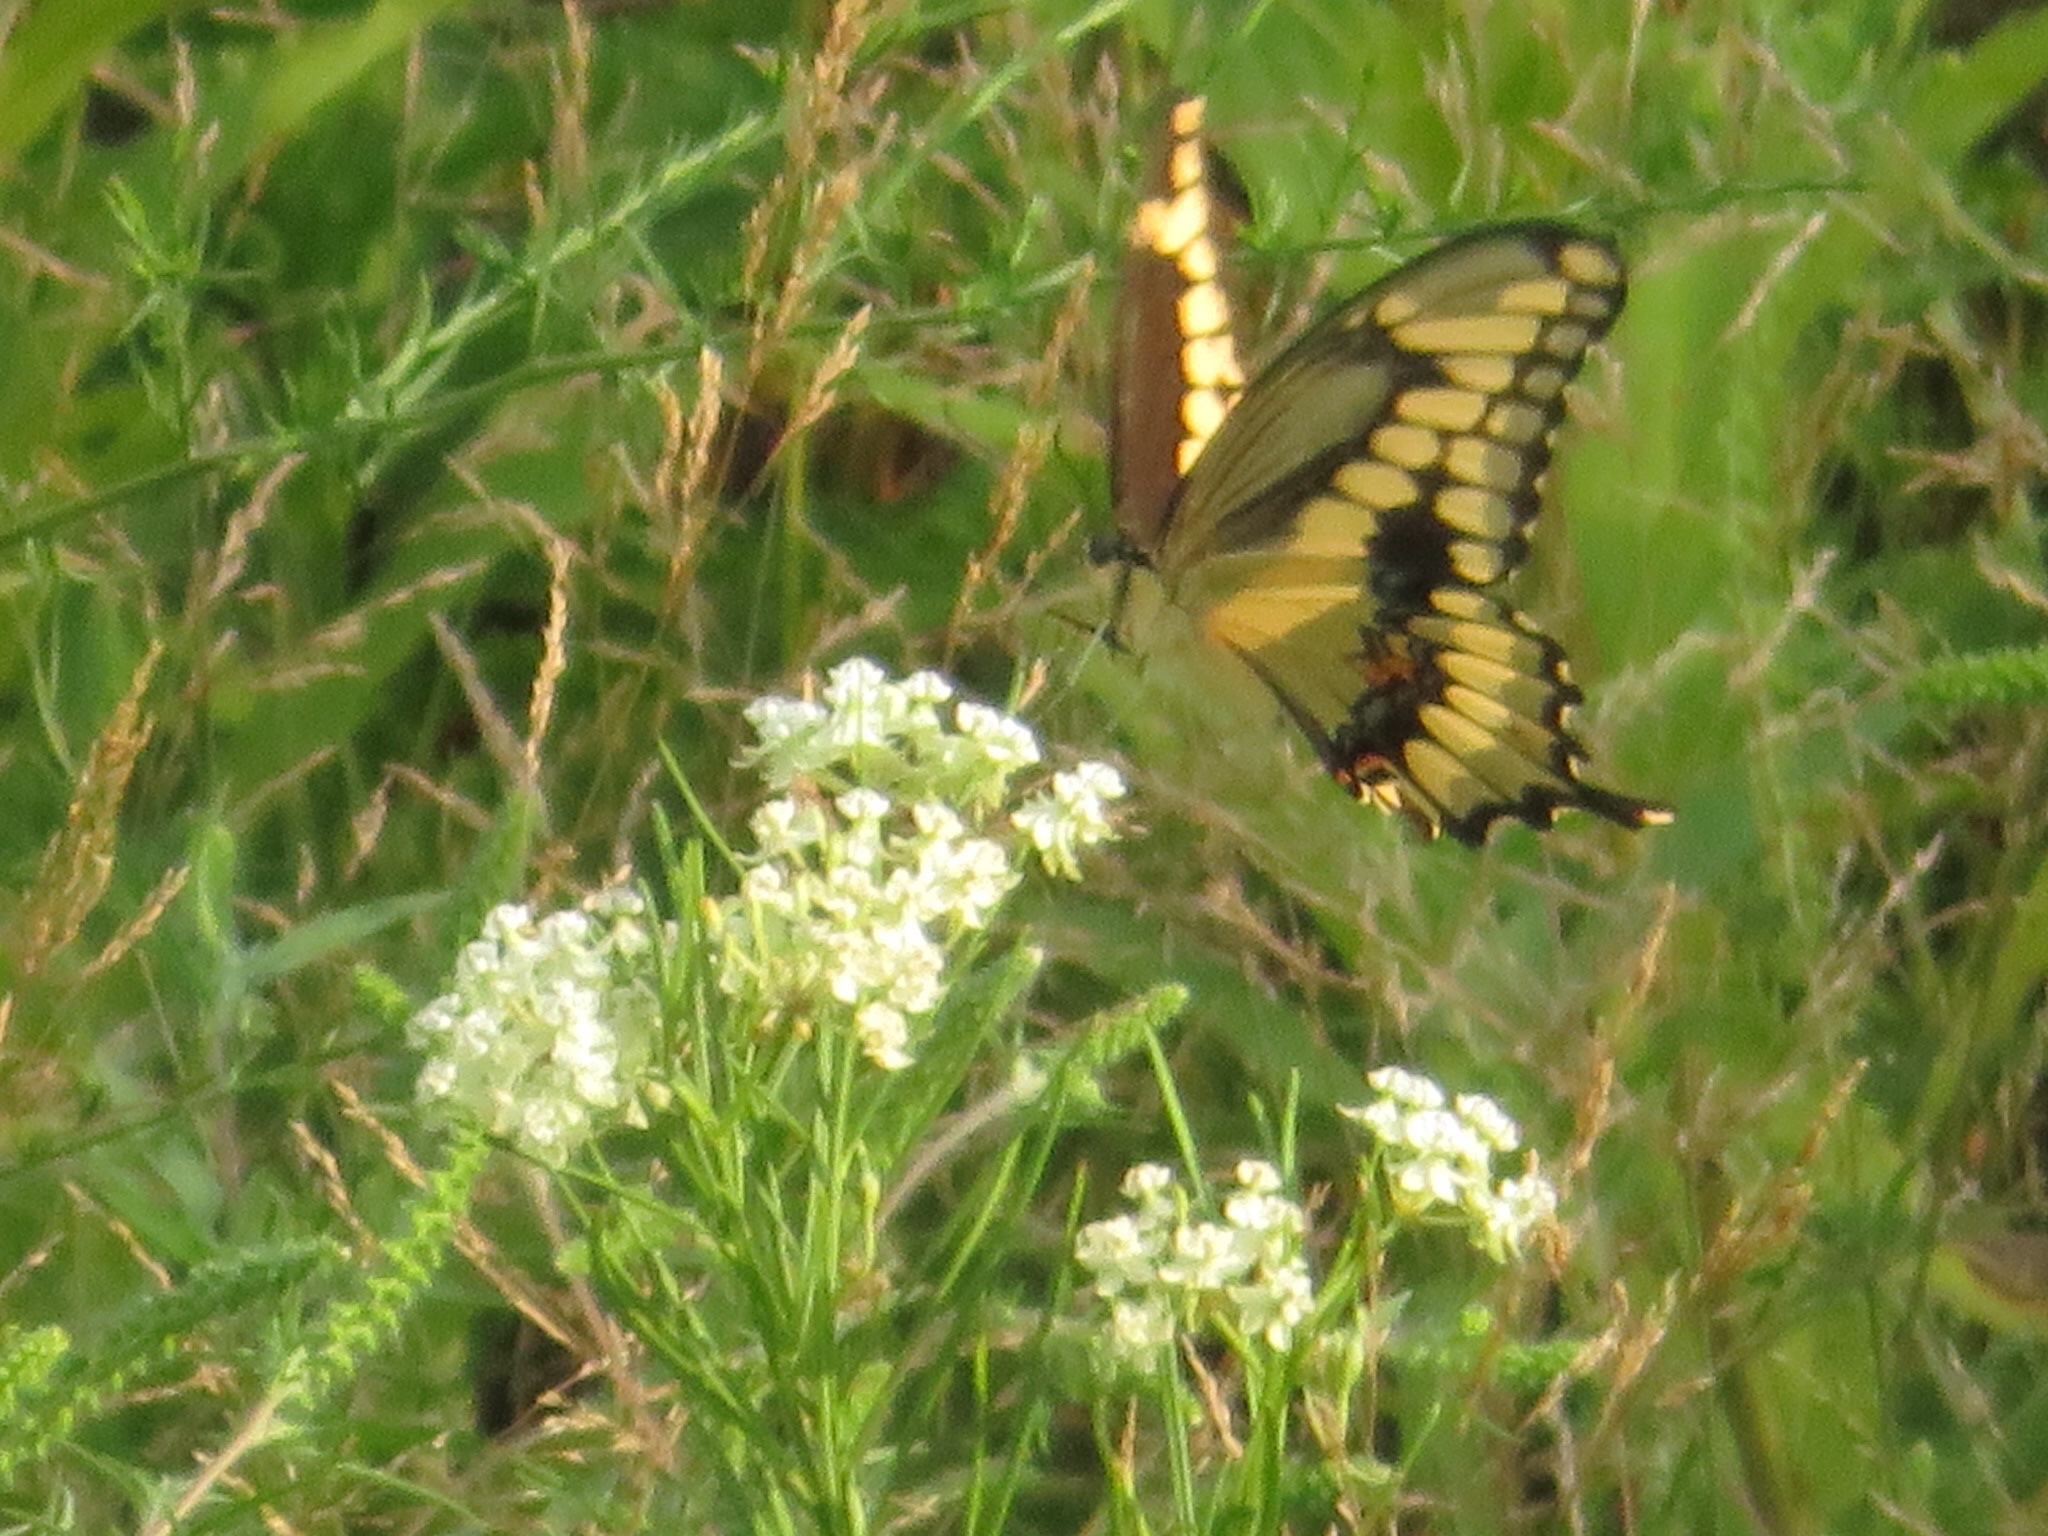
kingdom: Animalia
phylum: Arthropoda
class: Insecta
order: Lepidoptera
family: Papilionidae
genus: Papilio
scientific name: Papilio cresphontes
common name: Giant swallowtail
